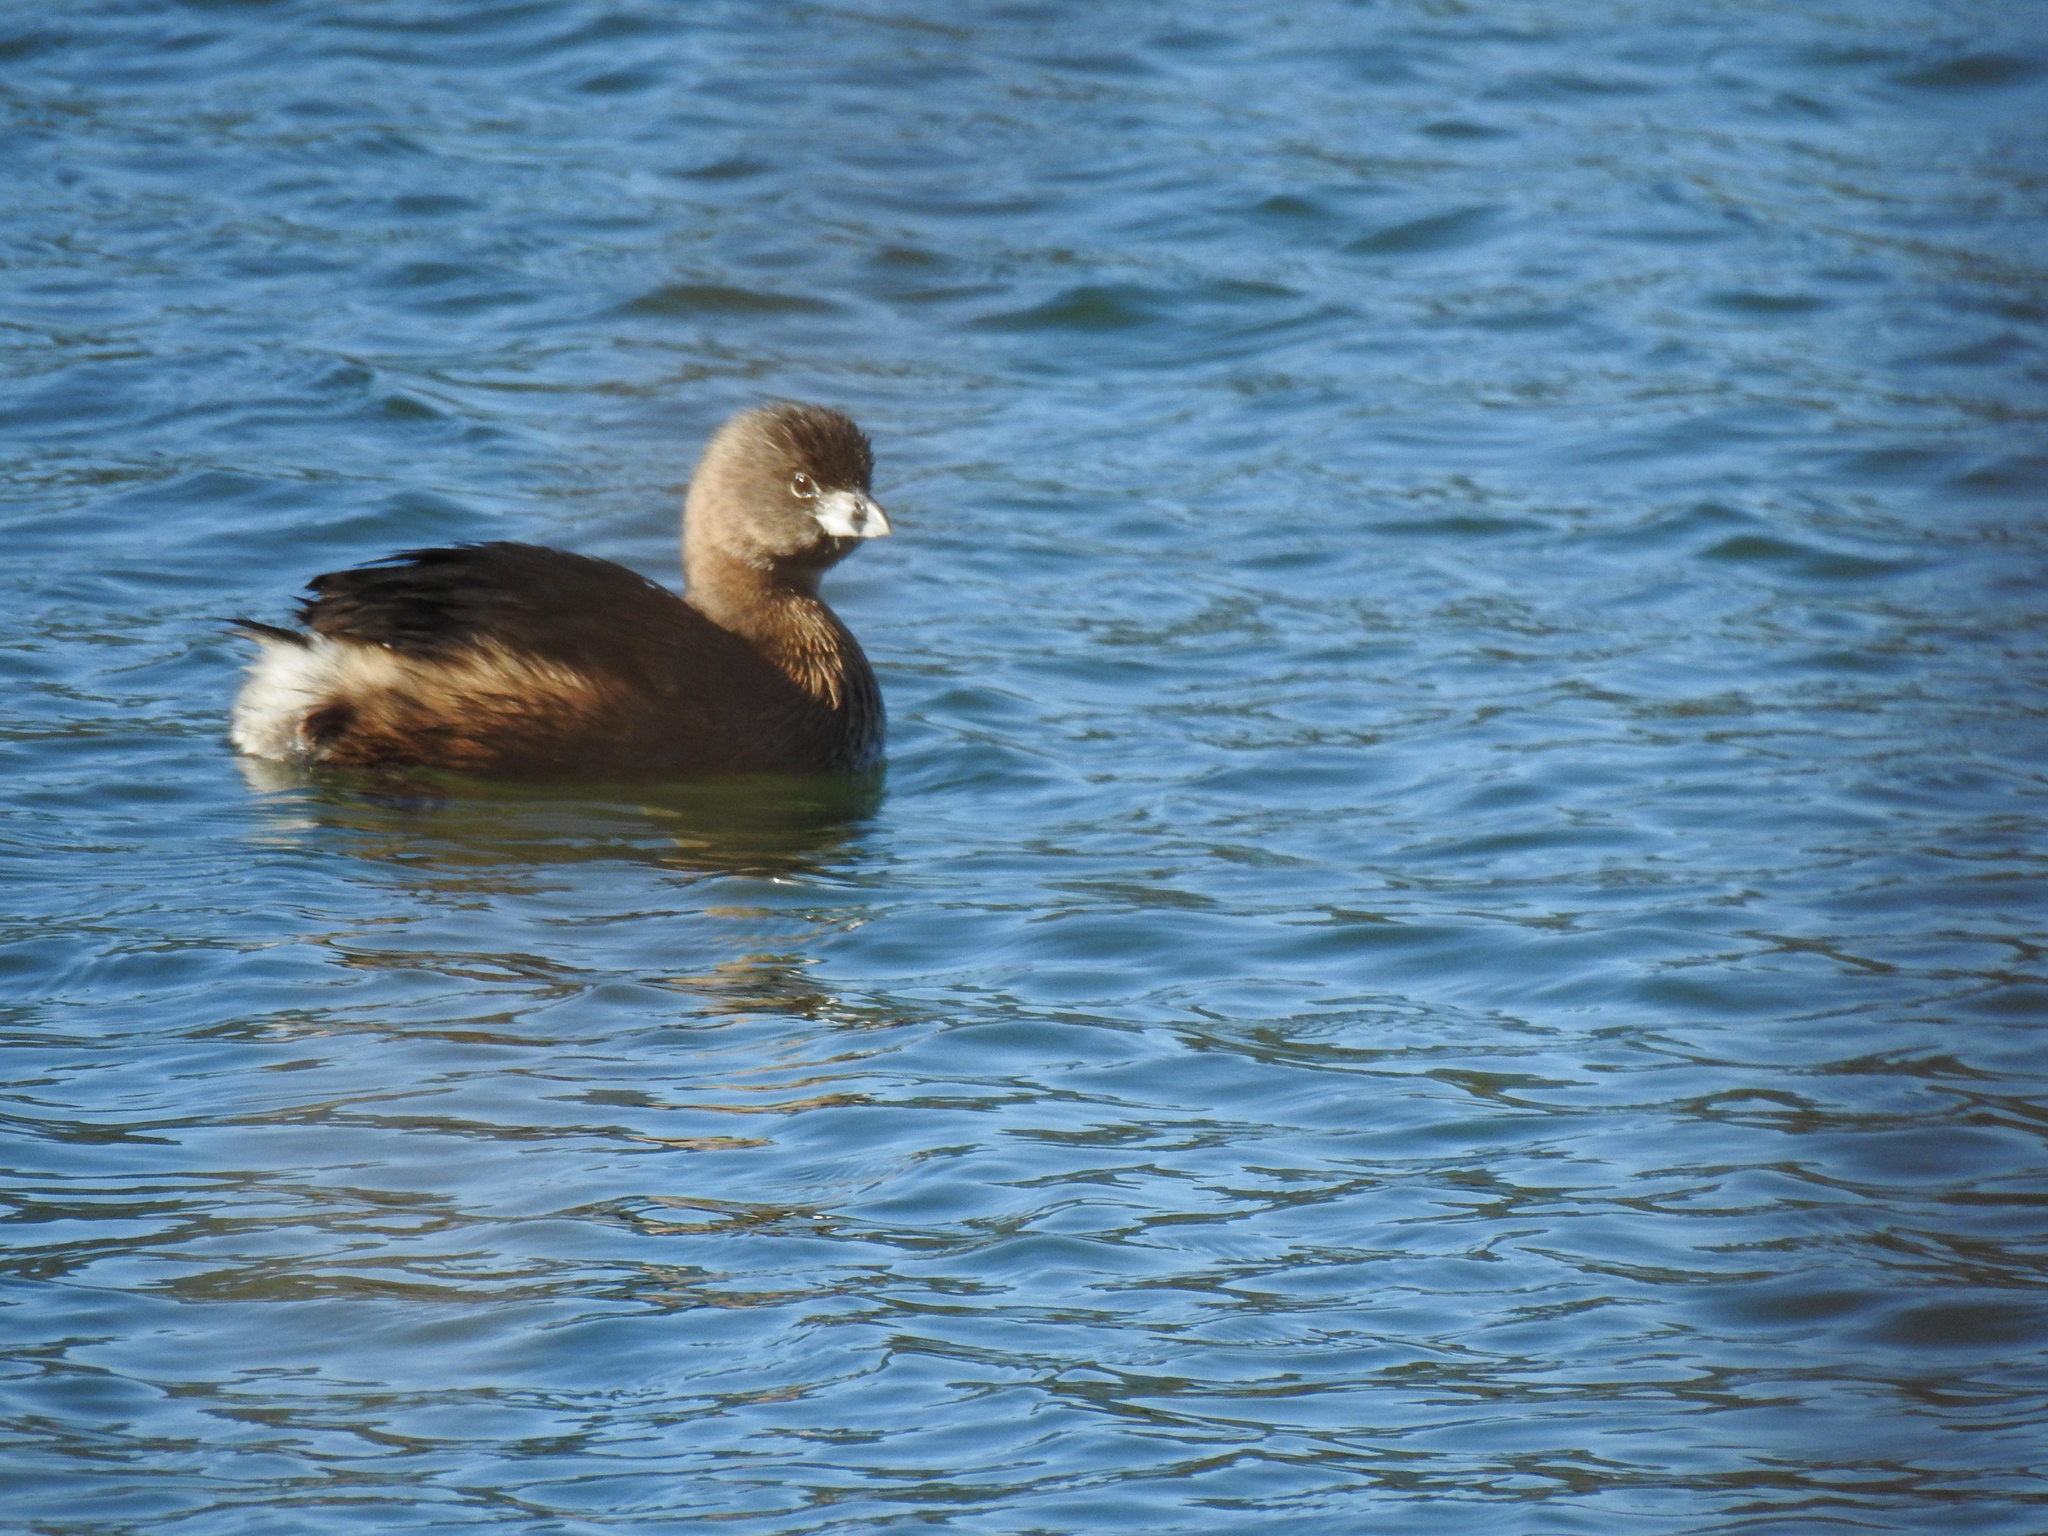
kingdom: Animalia
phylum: Chordata
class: Aves
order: Podicipediformes
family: Podicipedidae
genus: Podilymbus
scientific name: Podilymbus podiceps
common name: Pied-billed grebe
